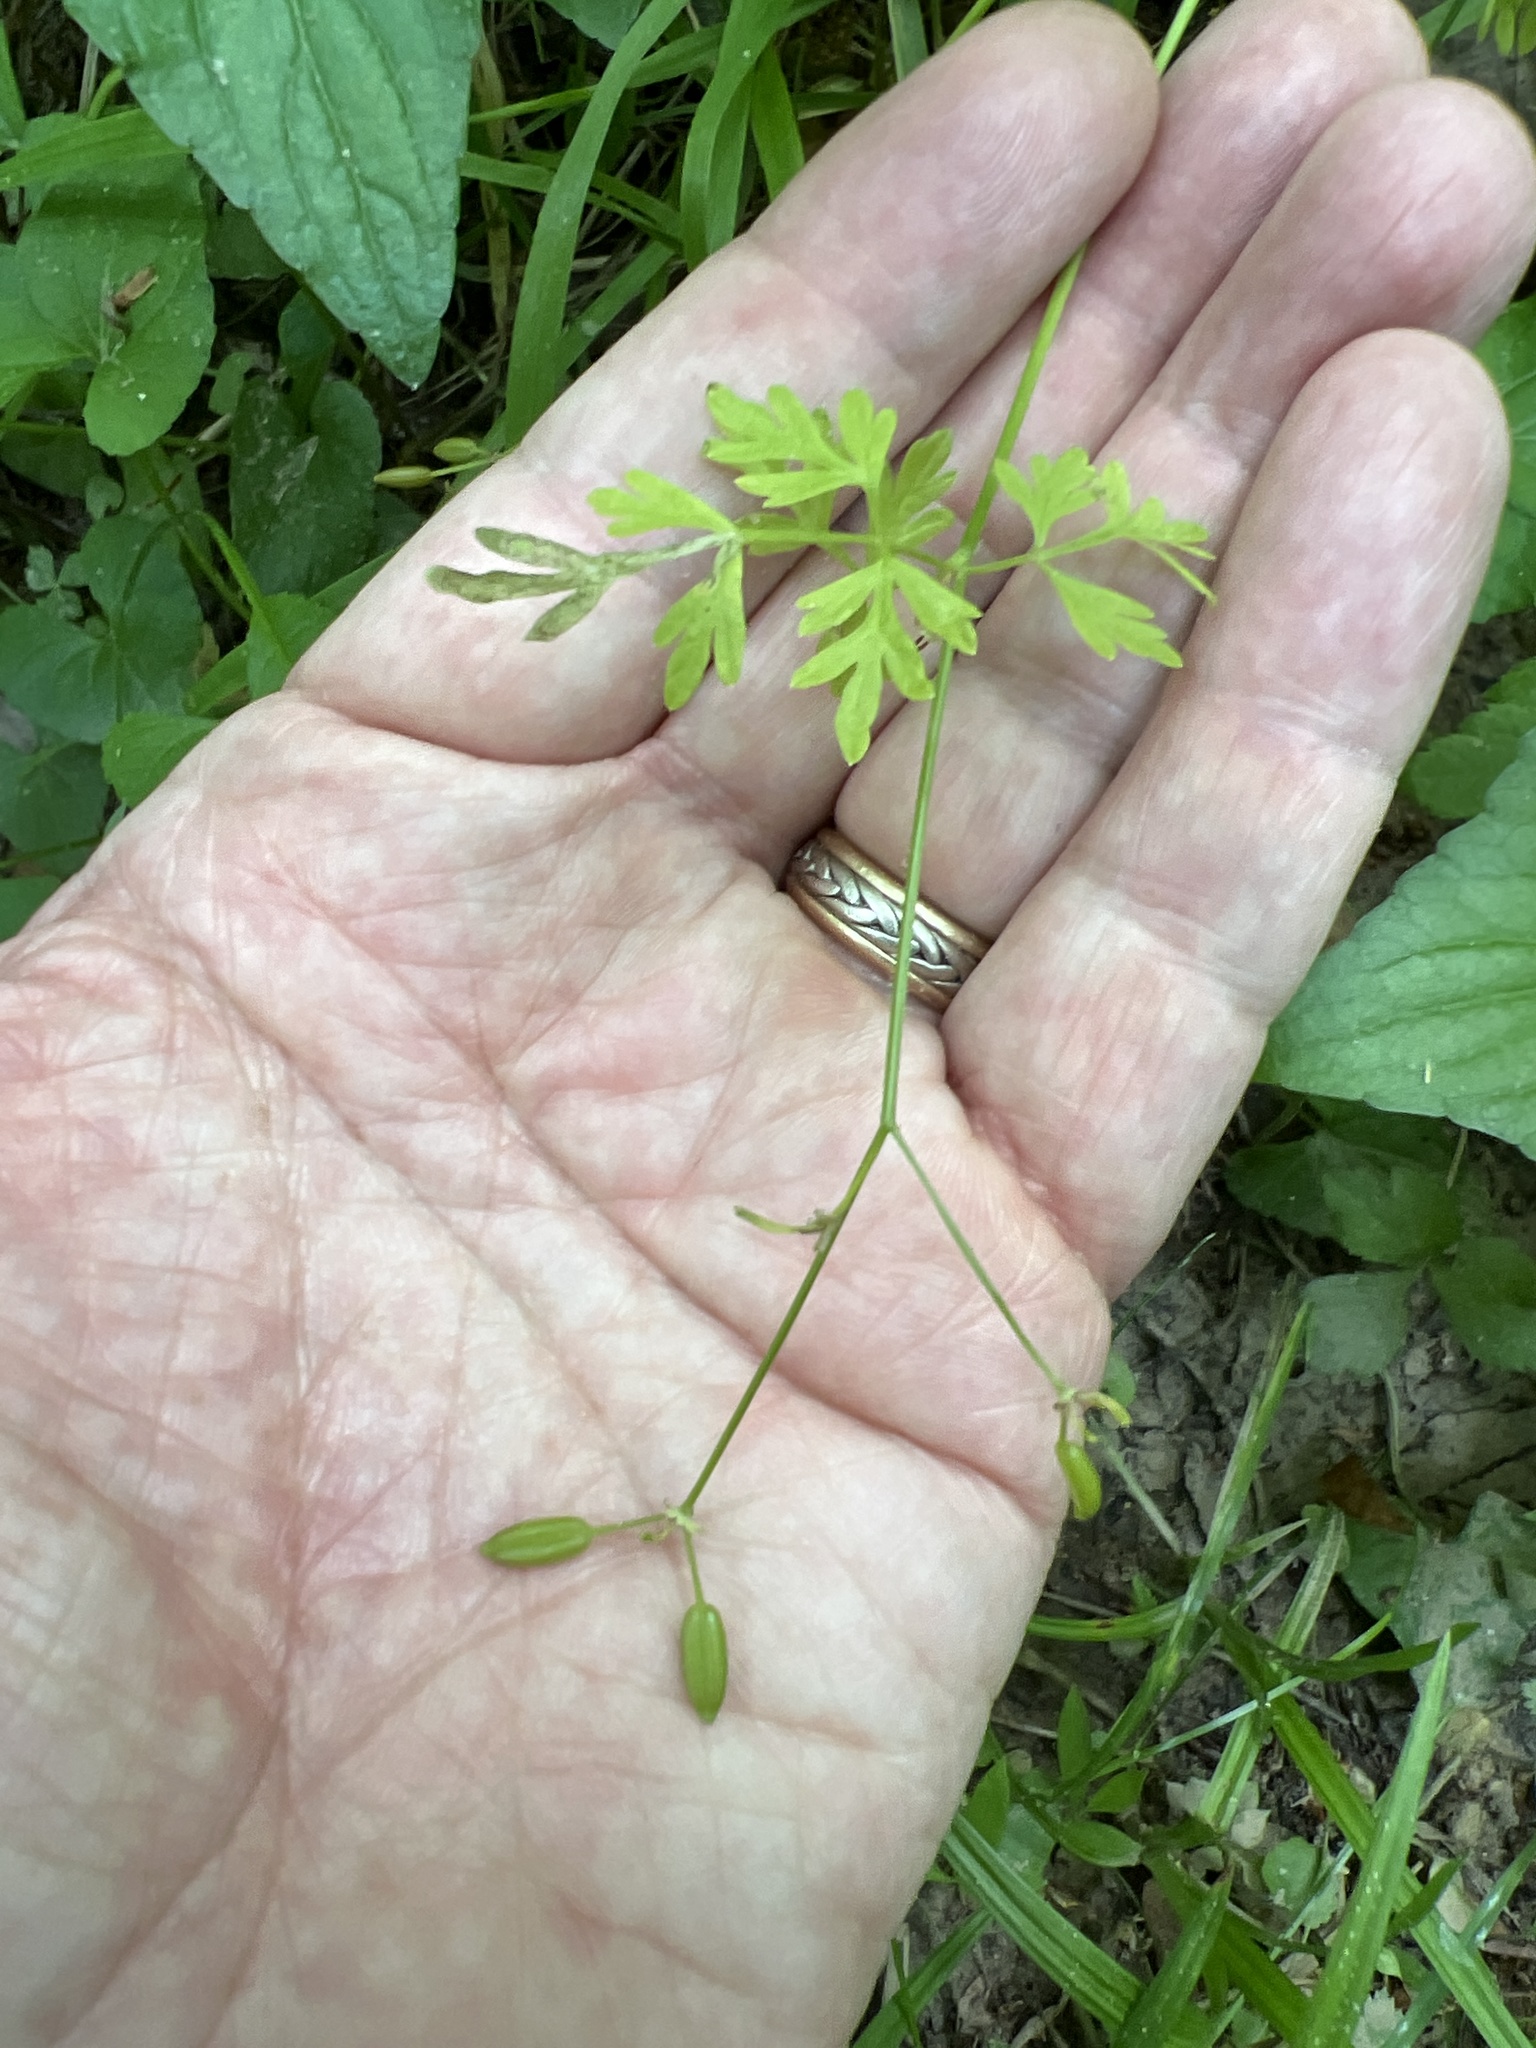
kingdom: Plantae
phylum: Tracheophyta
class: Magnoliopsida
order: Apiales
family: Apiaceae
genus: Chaerophyllum
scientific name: Chaerophyllum procumbens
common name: Spreading chervil
